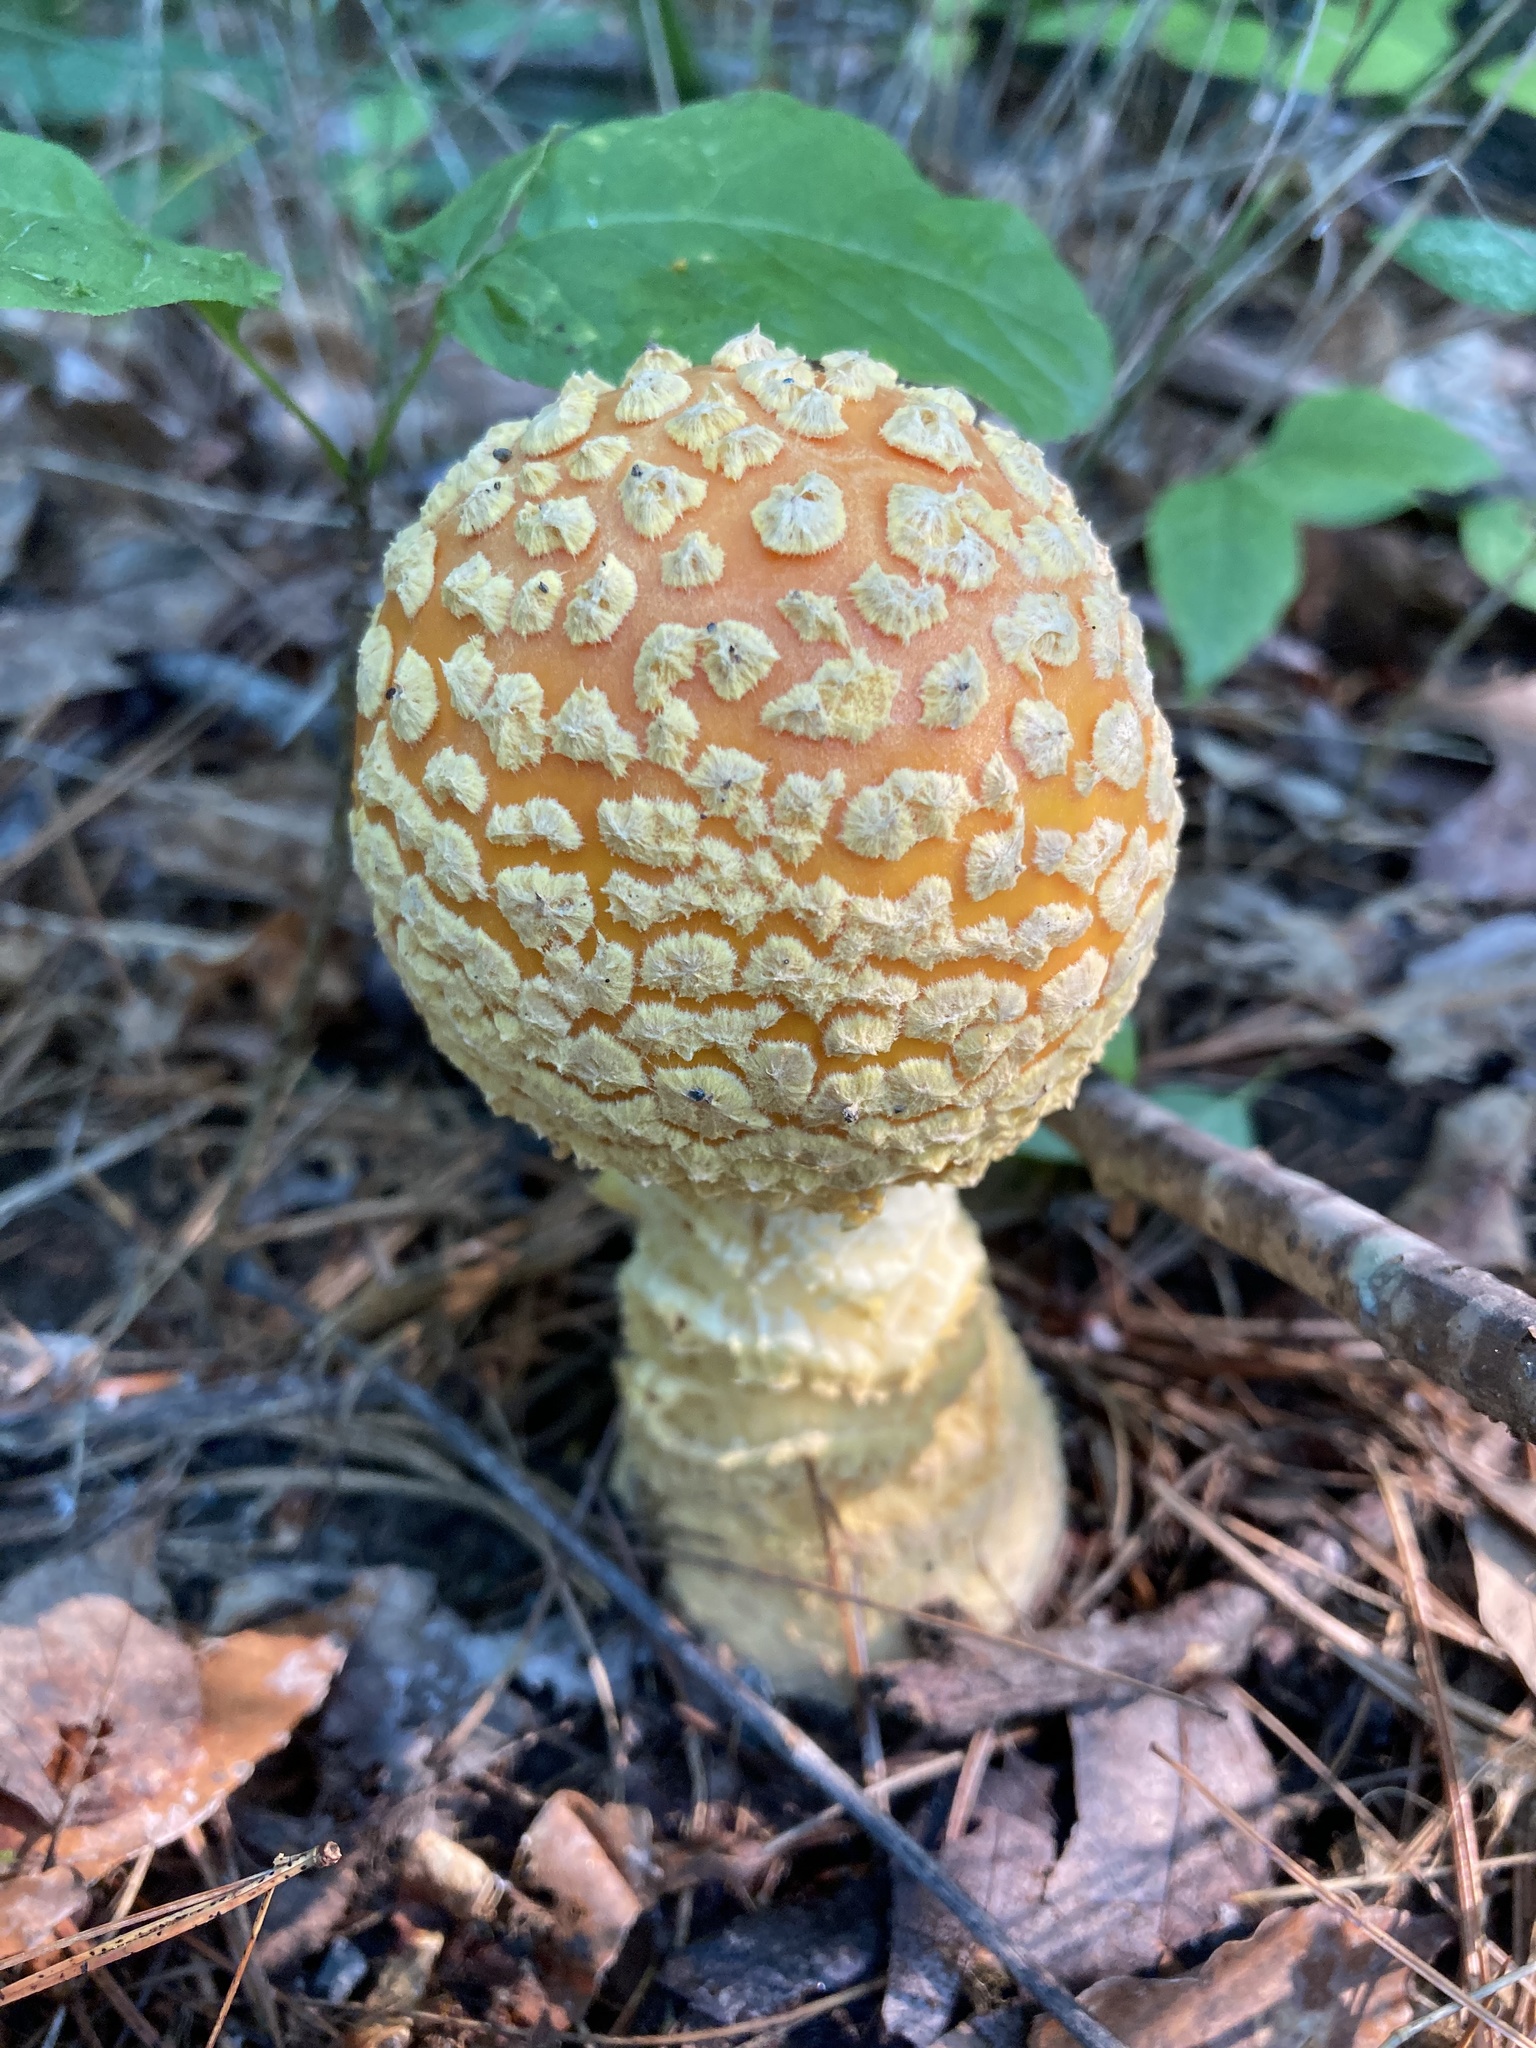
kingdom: Fungi
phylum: Basidiomycota
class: Agaricomycetes
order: Agaricales
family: Amanitaceae
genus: Amanita
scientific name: Amanita muscaria
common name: Fly agaric
